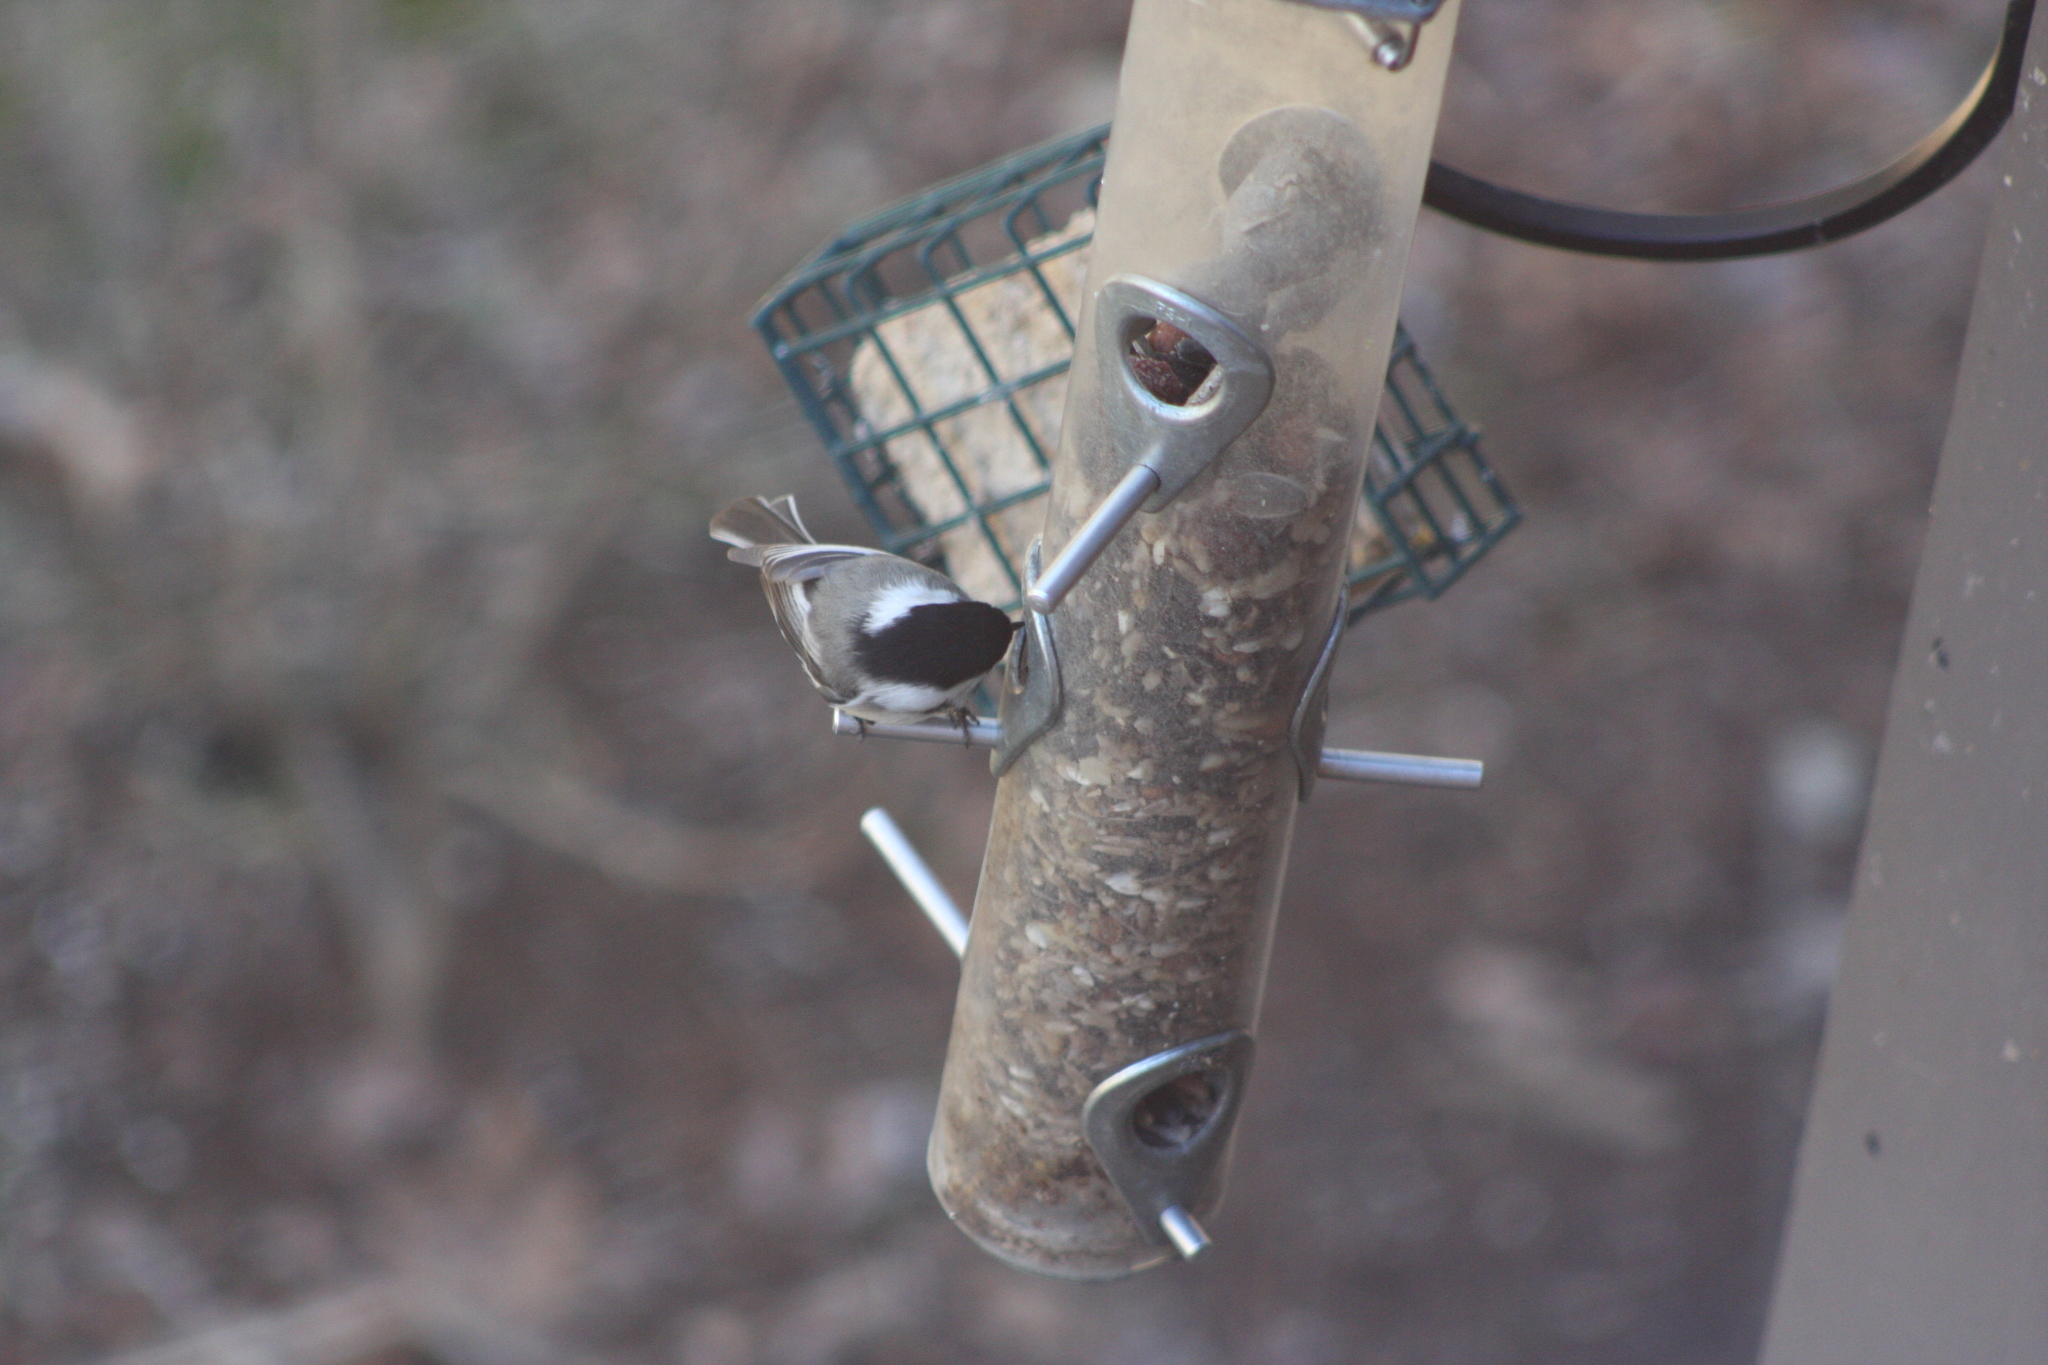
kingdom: Animalia
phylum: Chordata
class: Aves
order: Passeriformes
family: Paridae
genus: Poecile
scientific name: Poecile atricapillus
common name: Black-capped chickadee
